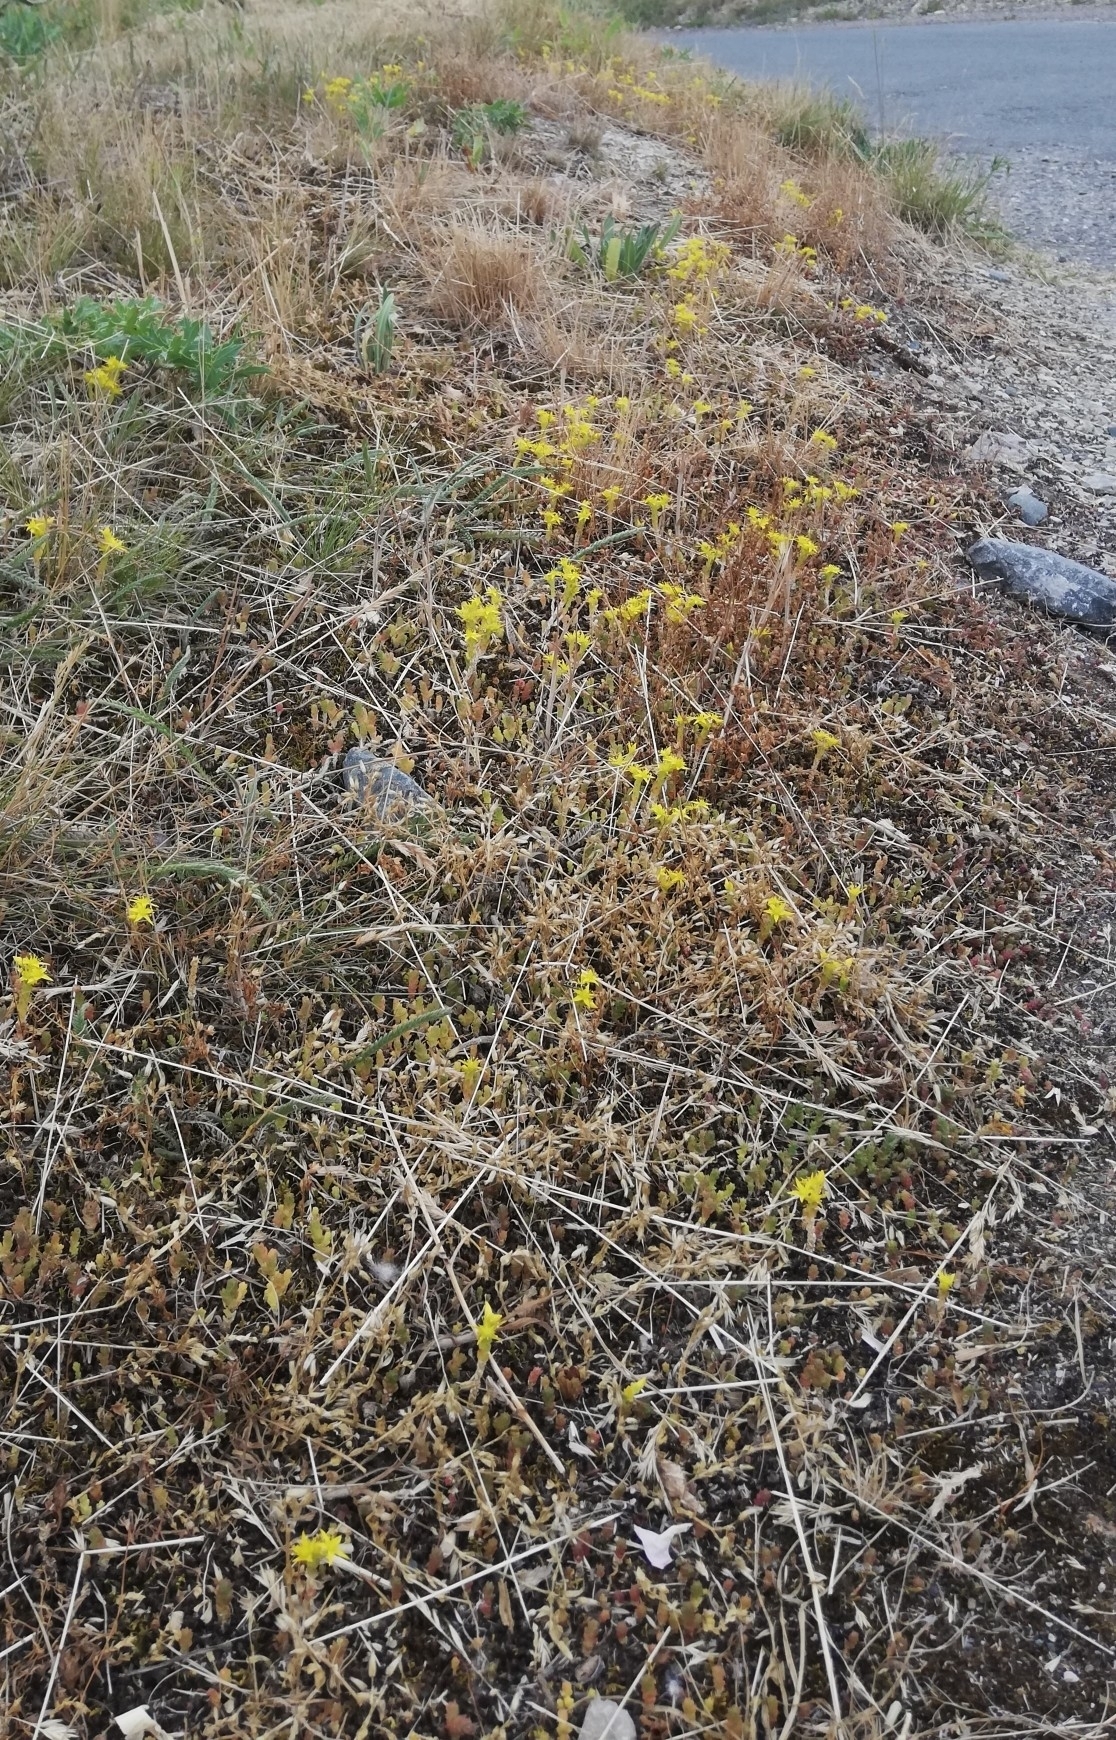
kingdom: Plantae
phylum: Tracheophyta
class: Magnoliopsida
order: Saxifragales
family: Crassulaceae
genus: Sedum
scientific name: Sedum acre
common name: Biting stonecrop
